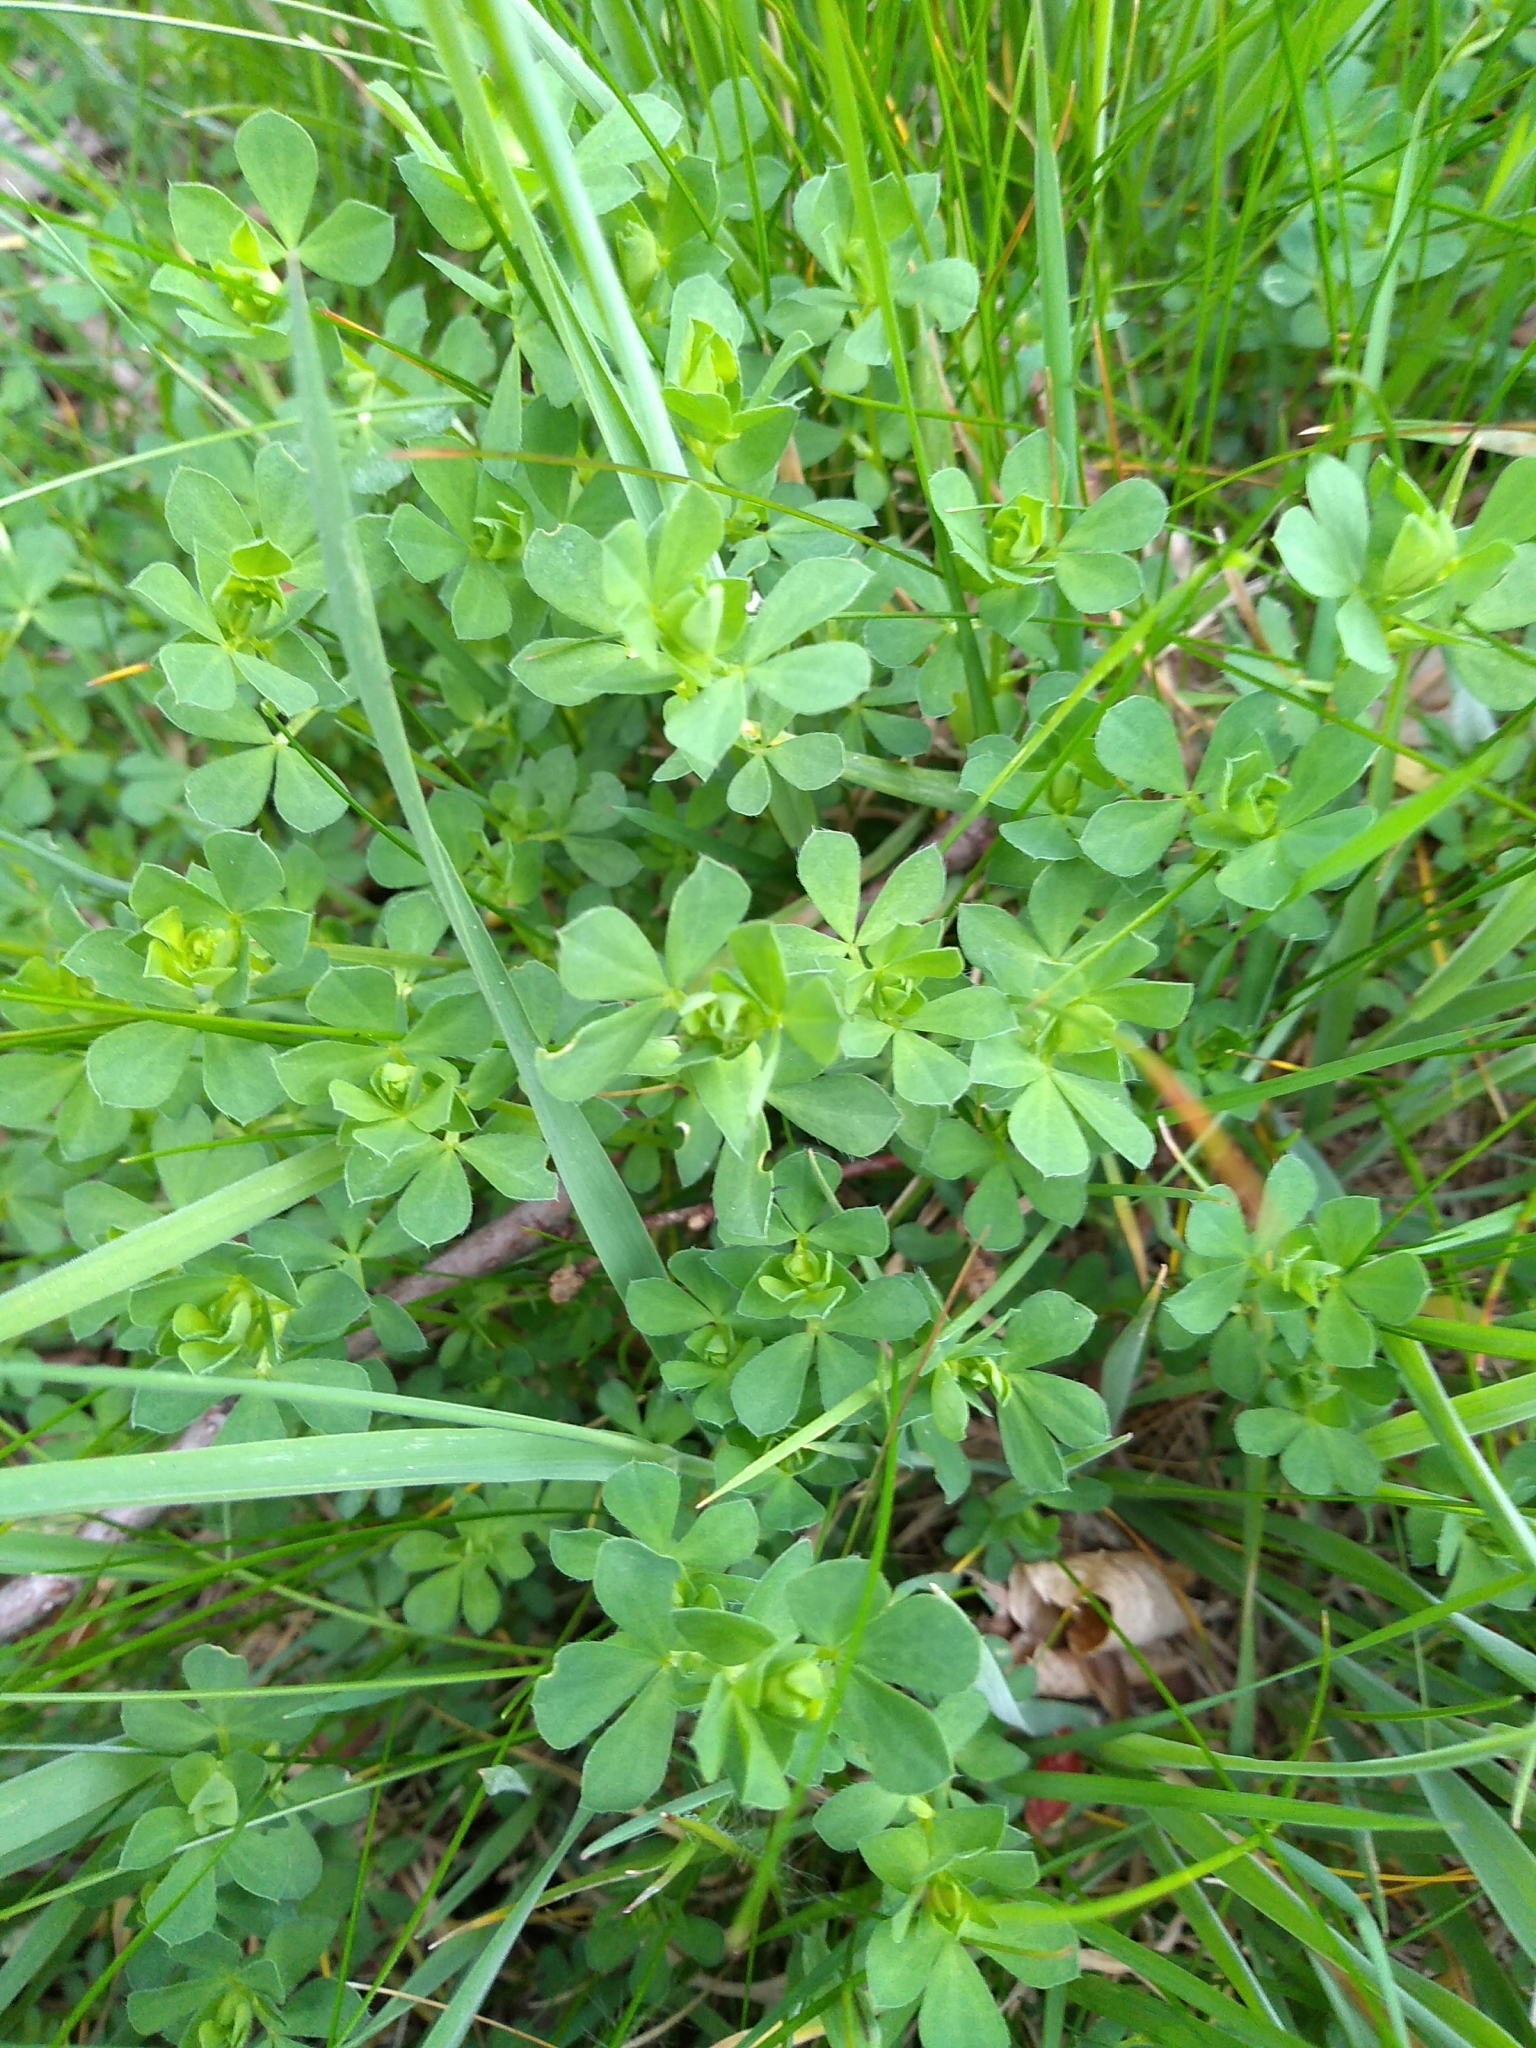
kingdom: Plantae
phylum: Tracheophyta
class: Magnoliopsida
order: Fabales
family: Fabaceae
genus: Lotus
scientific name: Lotus corniculatus
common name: Common bird's-foot-trefoil
